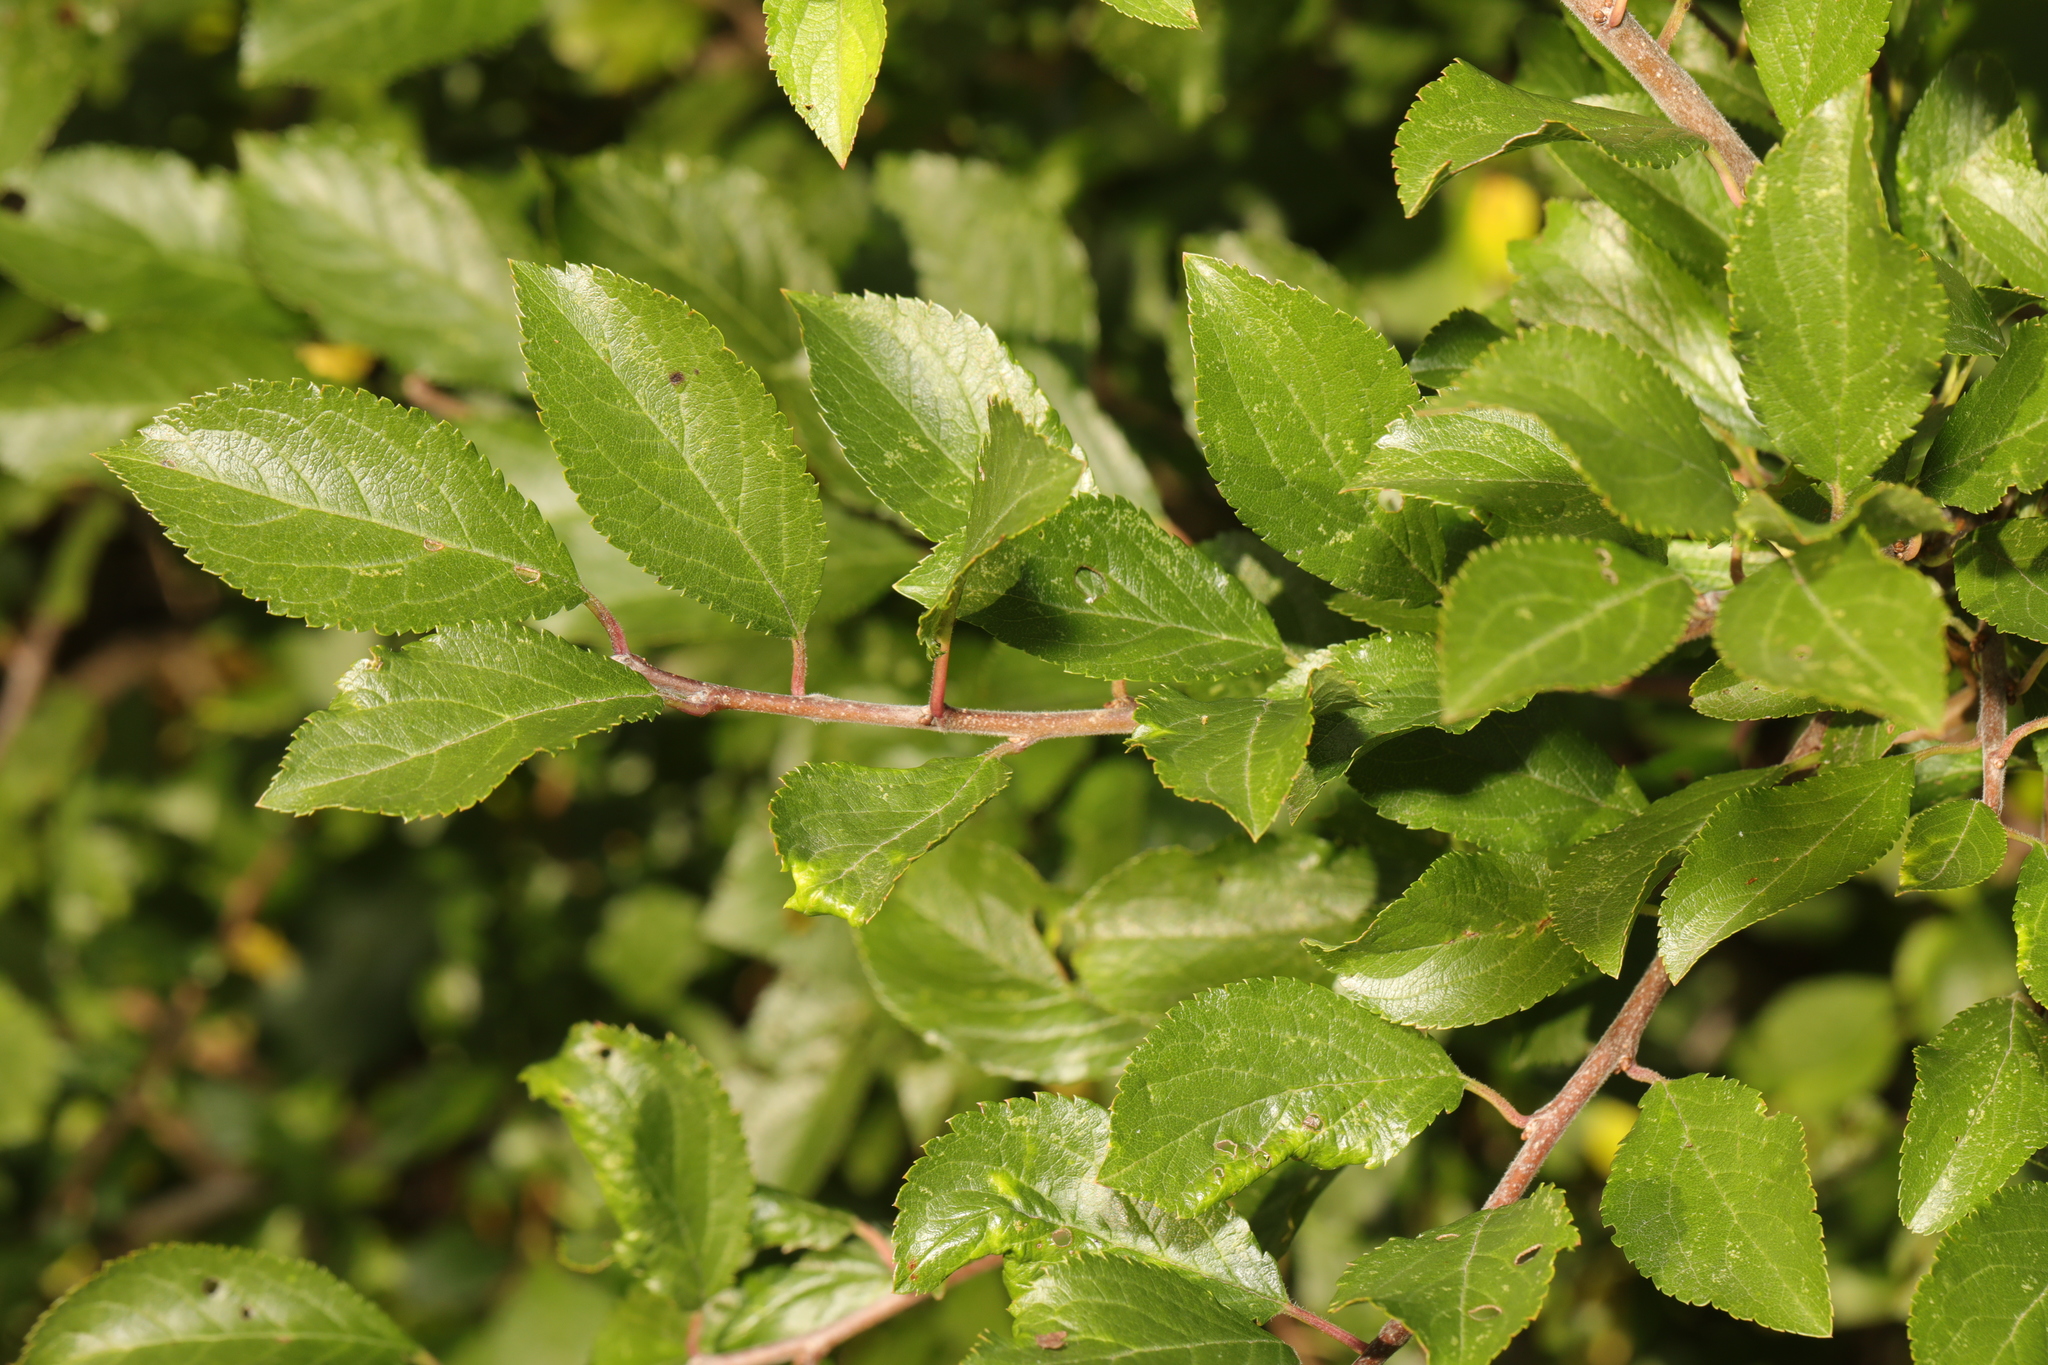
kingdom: Plantae
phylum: Tracheophyta
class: Magnoliopsida
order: Rosales
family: Rosaceae
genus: Prunus
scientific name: Prunus spinosa
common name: Blackthorn
